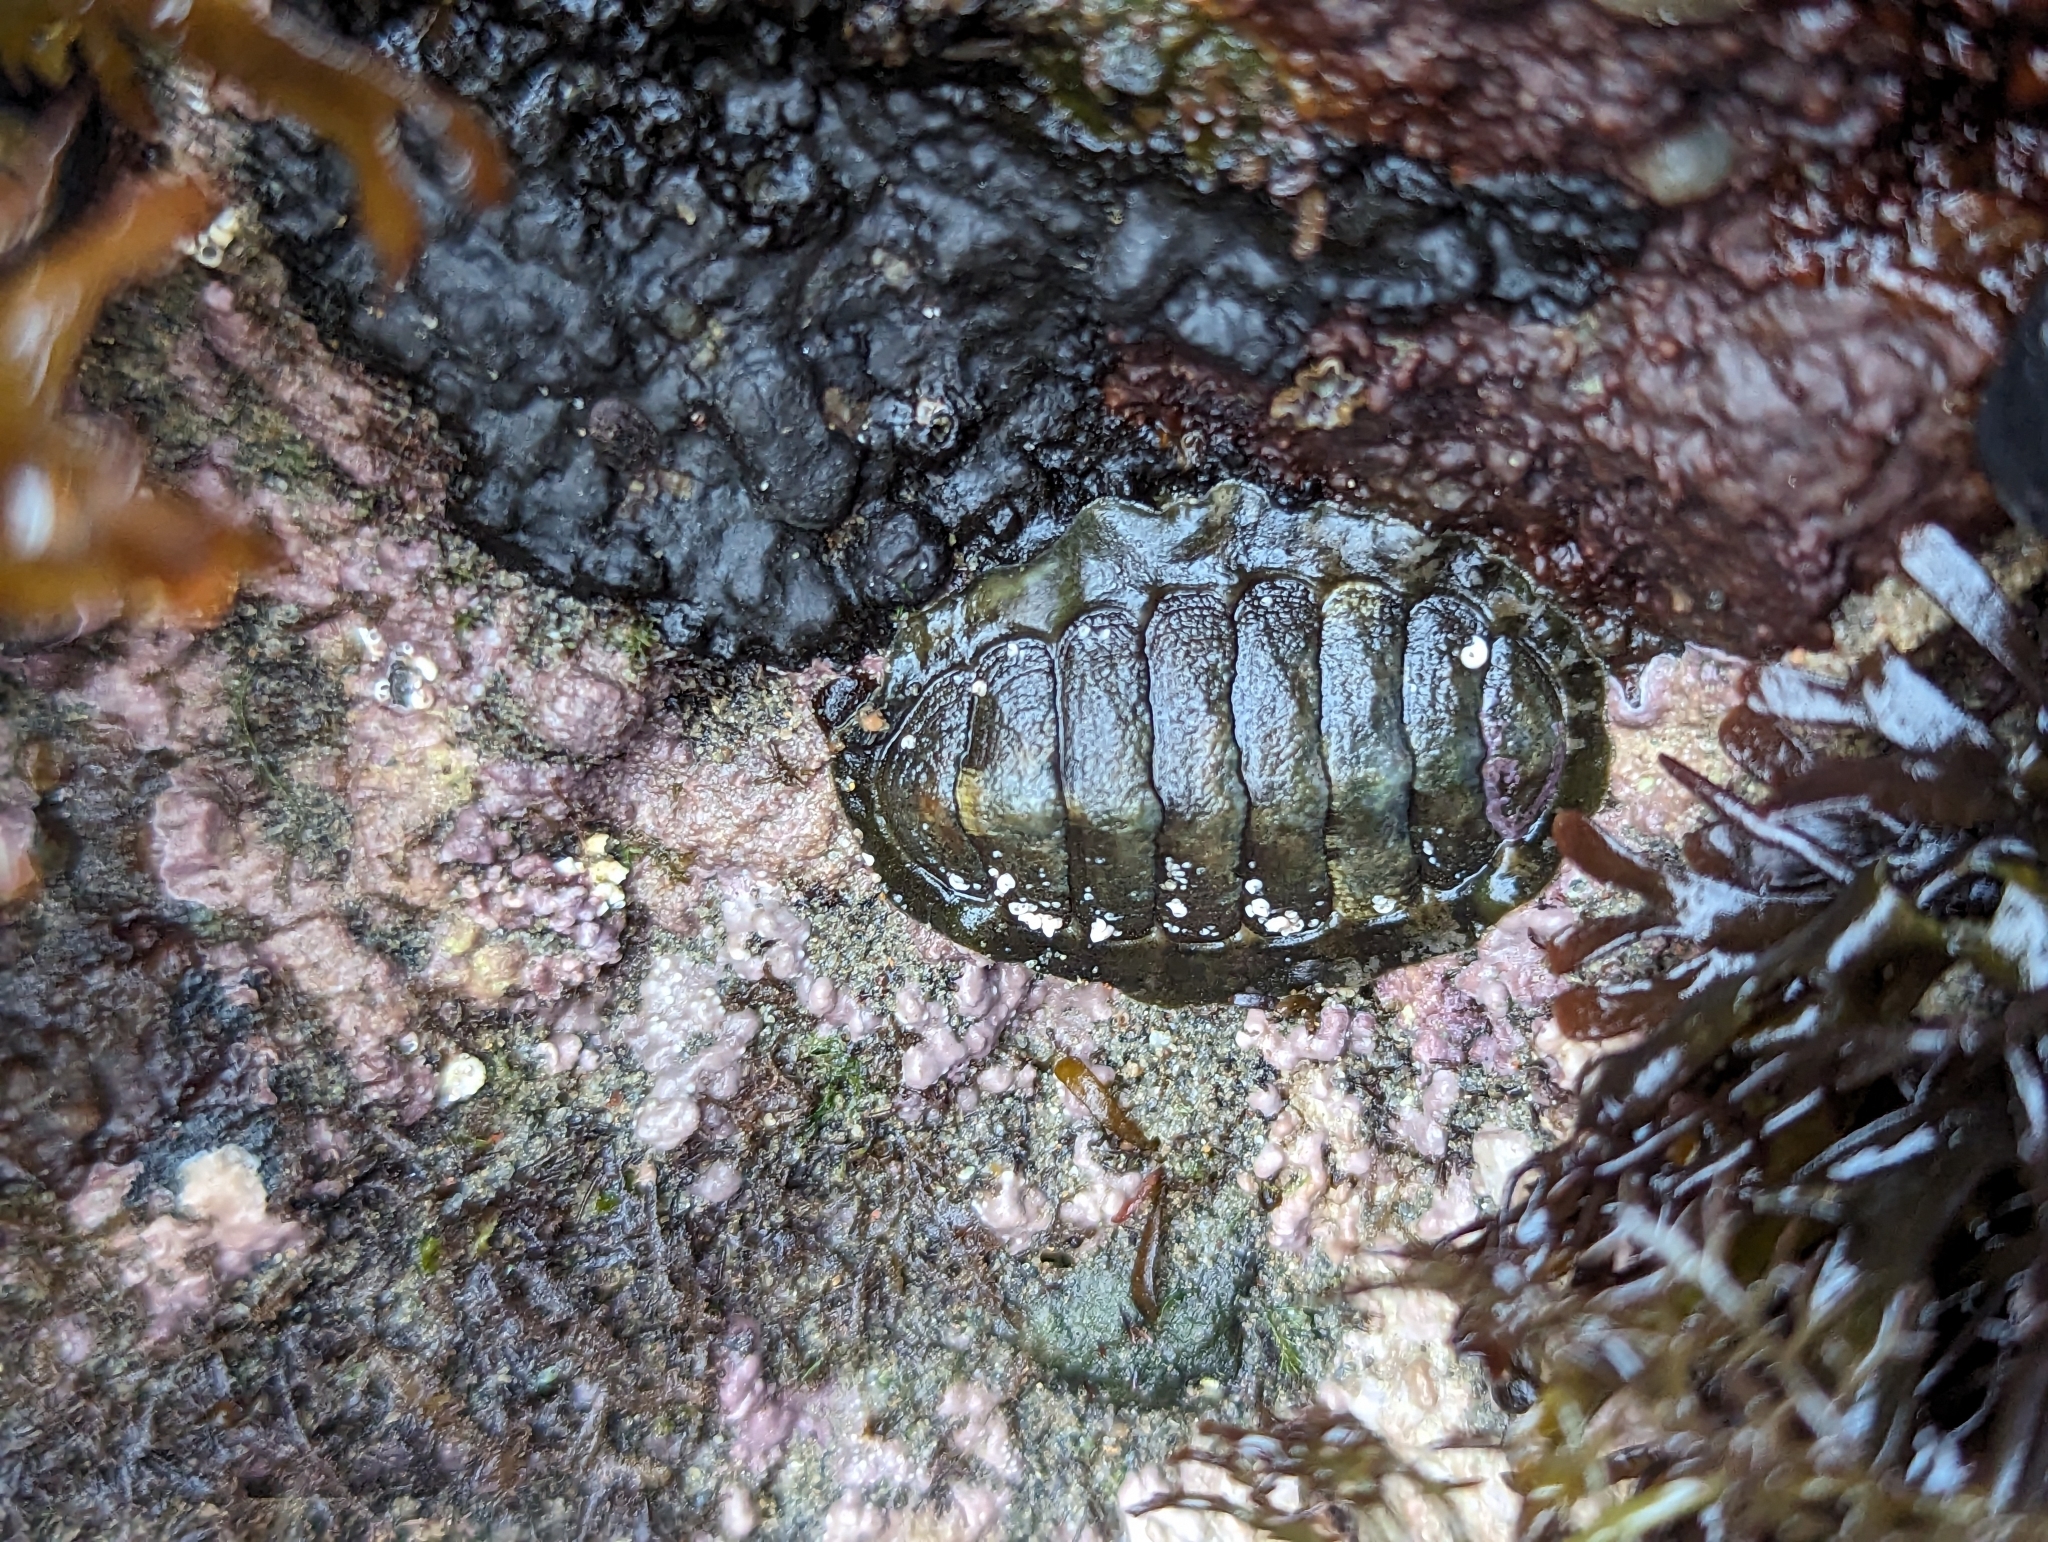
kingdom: Animalia
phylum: Mollusca
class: Polyplacophora
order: Chitonida
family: Tonicellidae
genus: Cyanoplax
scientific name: Cyanoplax hartwegii
